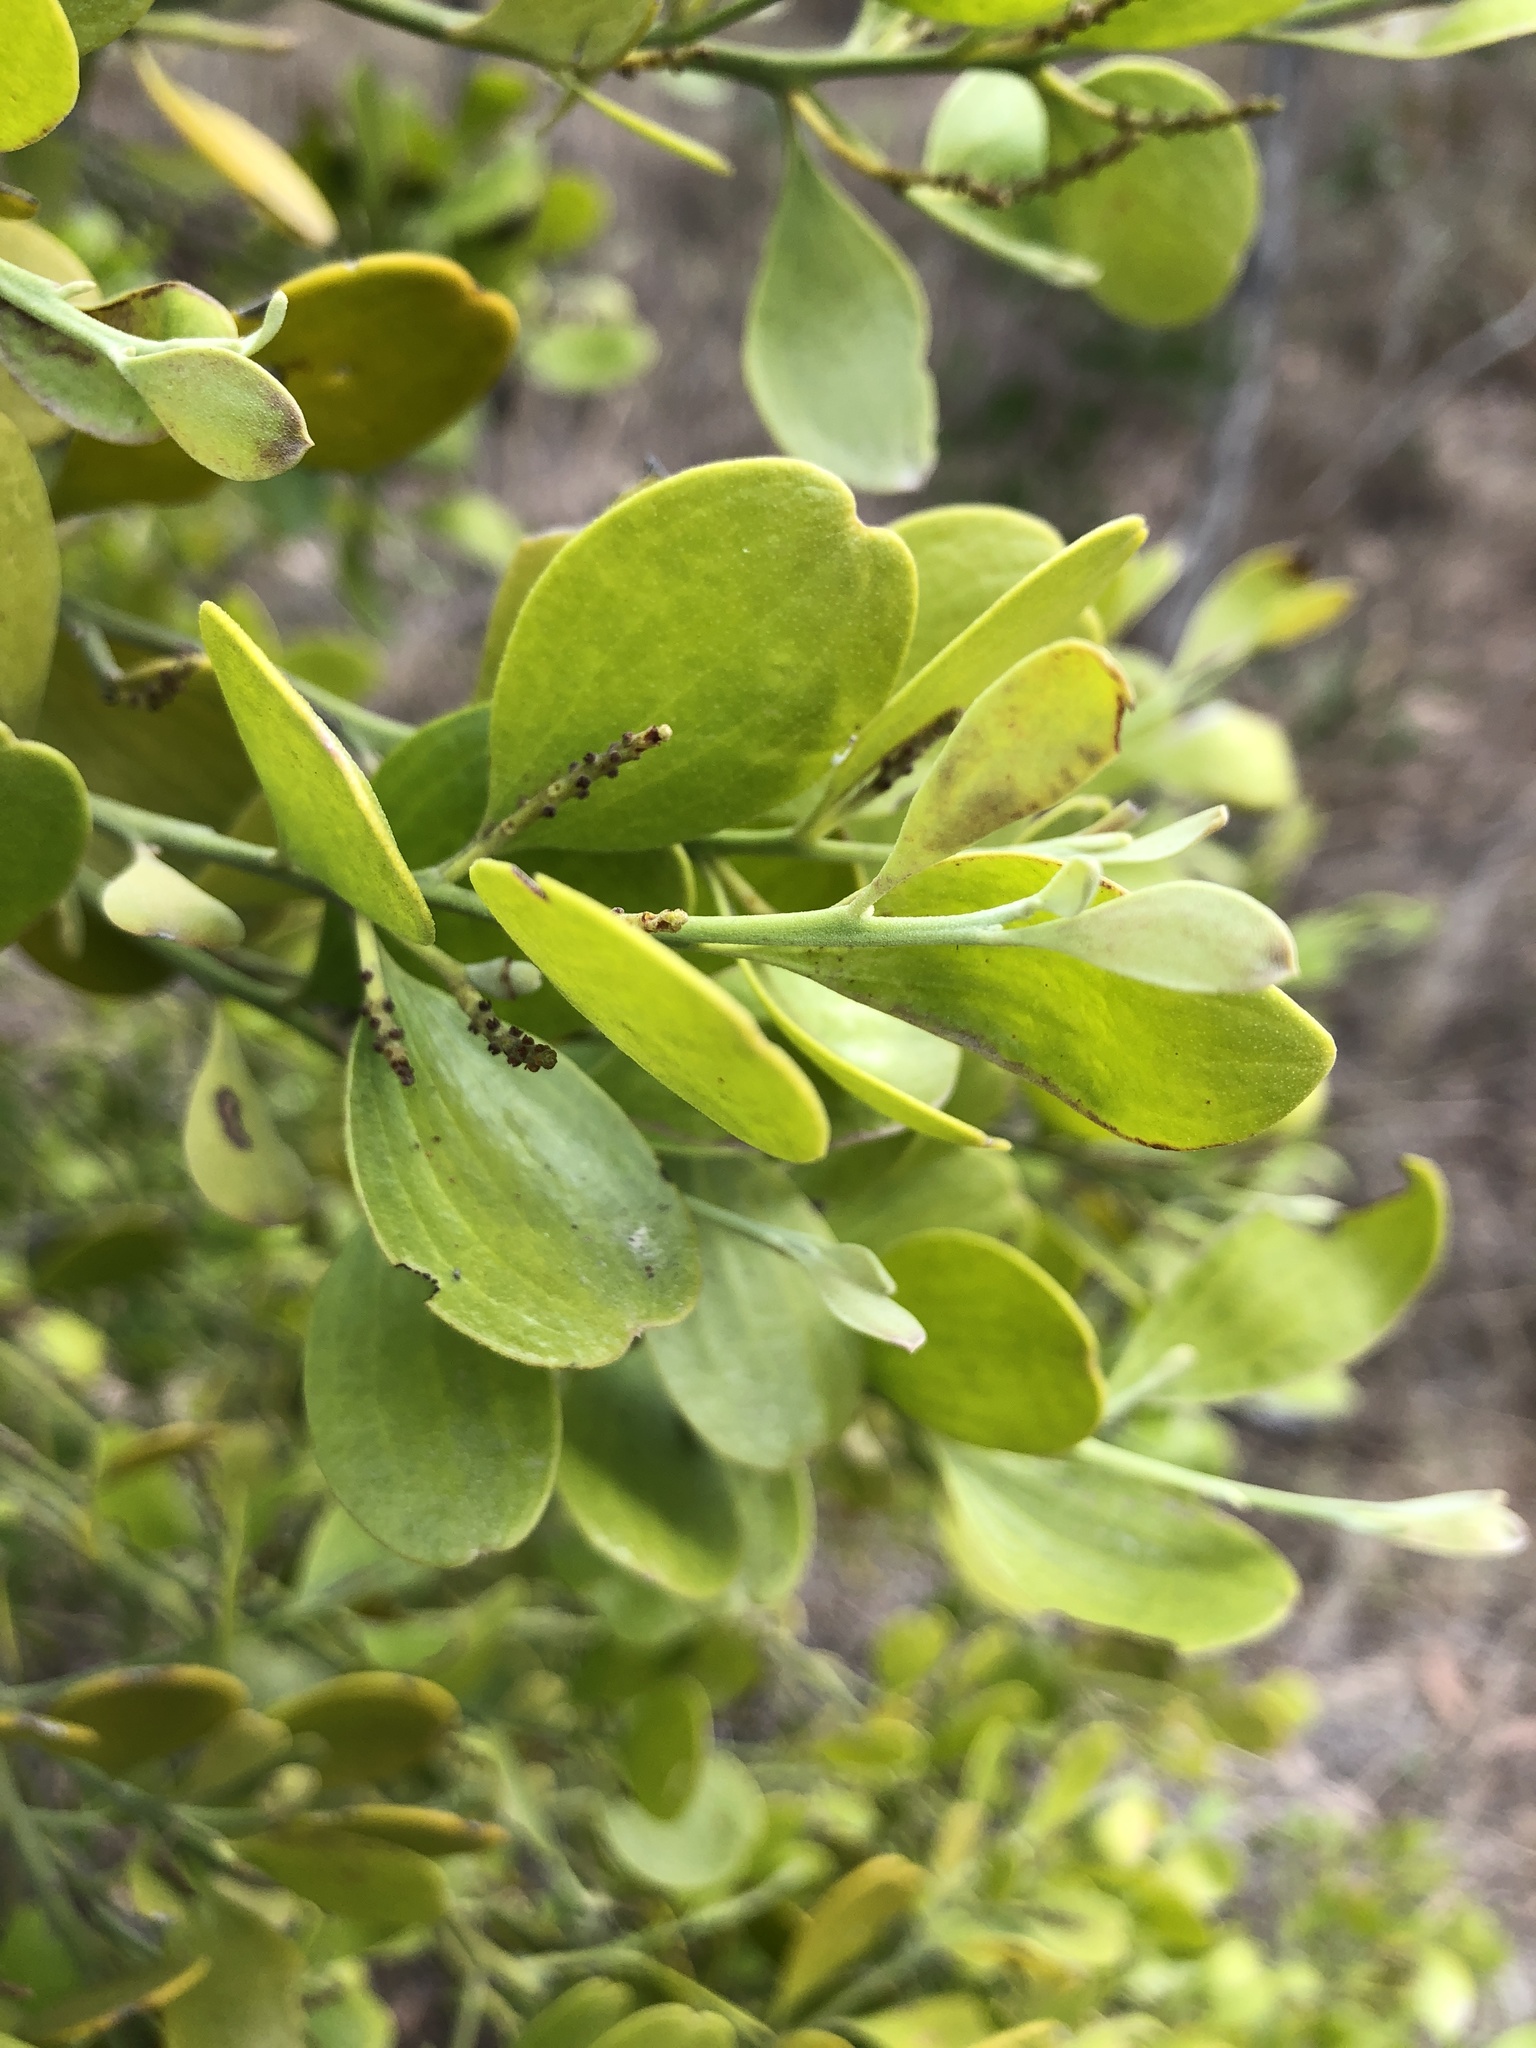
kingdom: Plantae
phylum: Tracheophyta
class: Magnoliopsida
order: Santalales
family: Santalaceae
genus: Exocarpos
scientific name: Exocarpos latifolius
